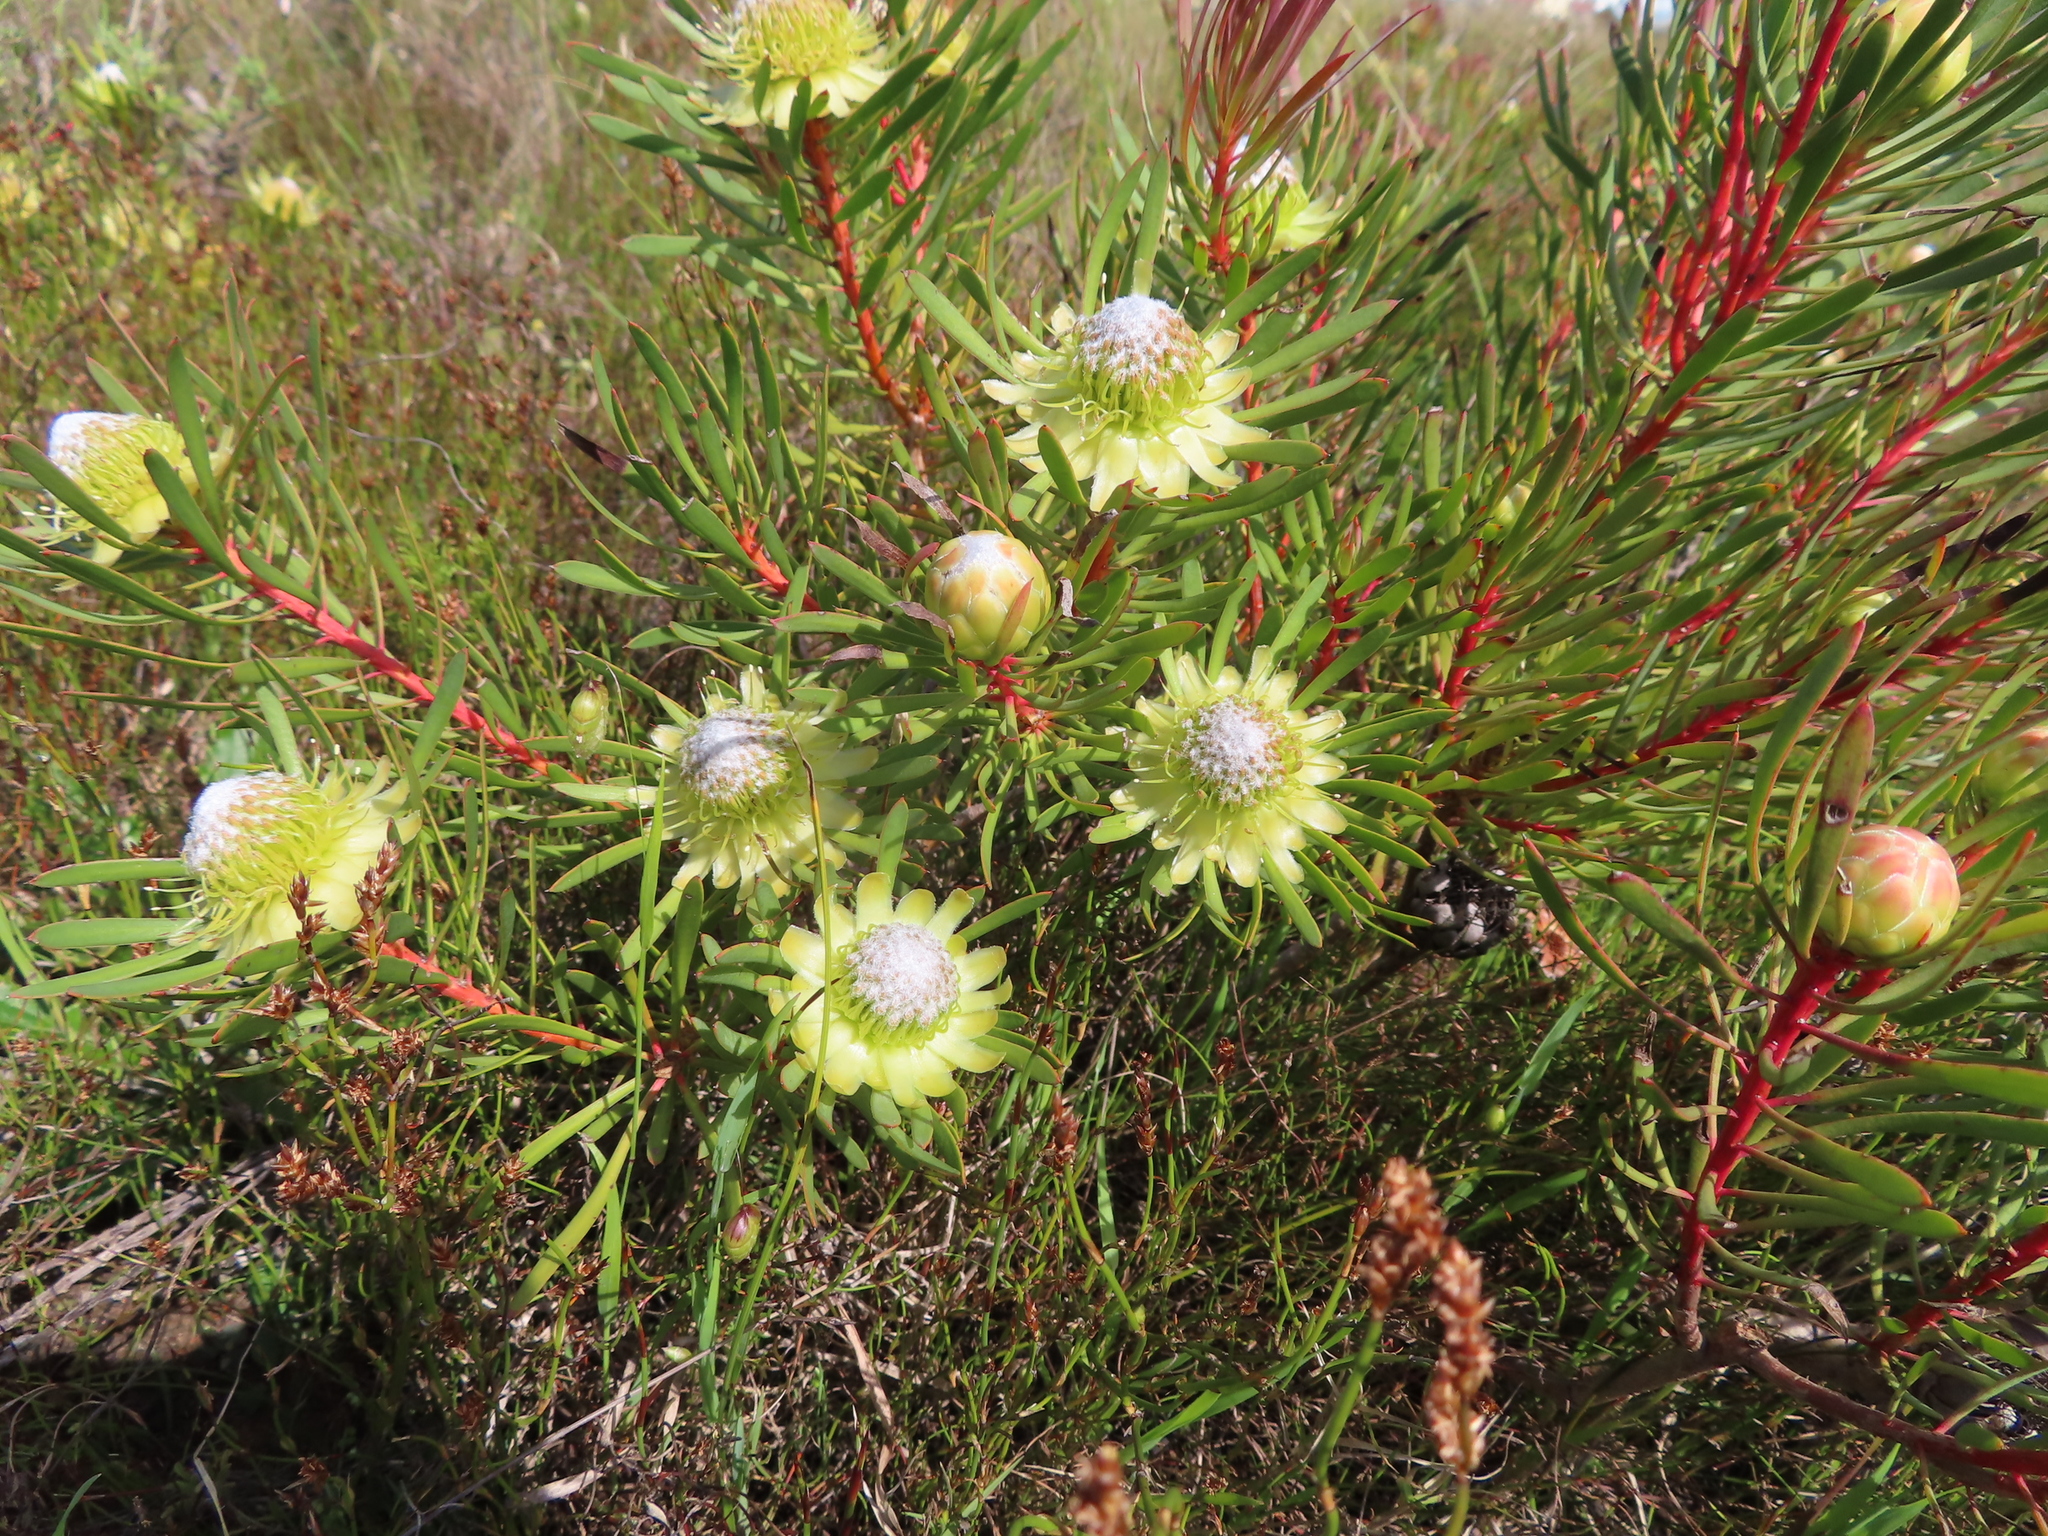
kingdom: Plantae
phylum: Tracheophyta
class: Magnoliopsida
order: Proteales
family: Proteaceae
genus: Protea
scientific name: Protea scolymocephala
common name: Thistle sugarbush
